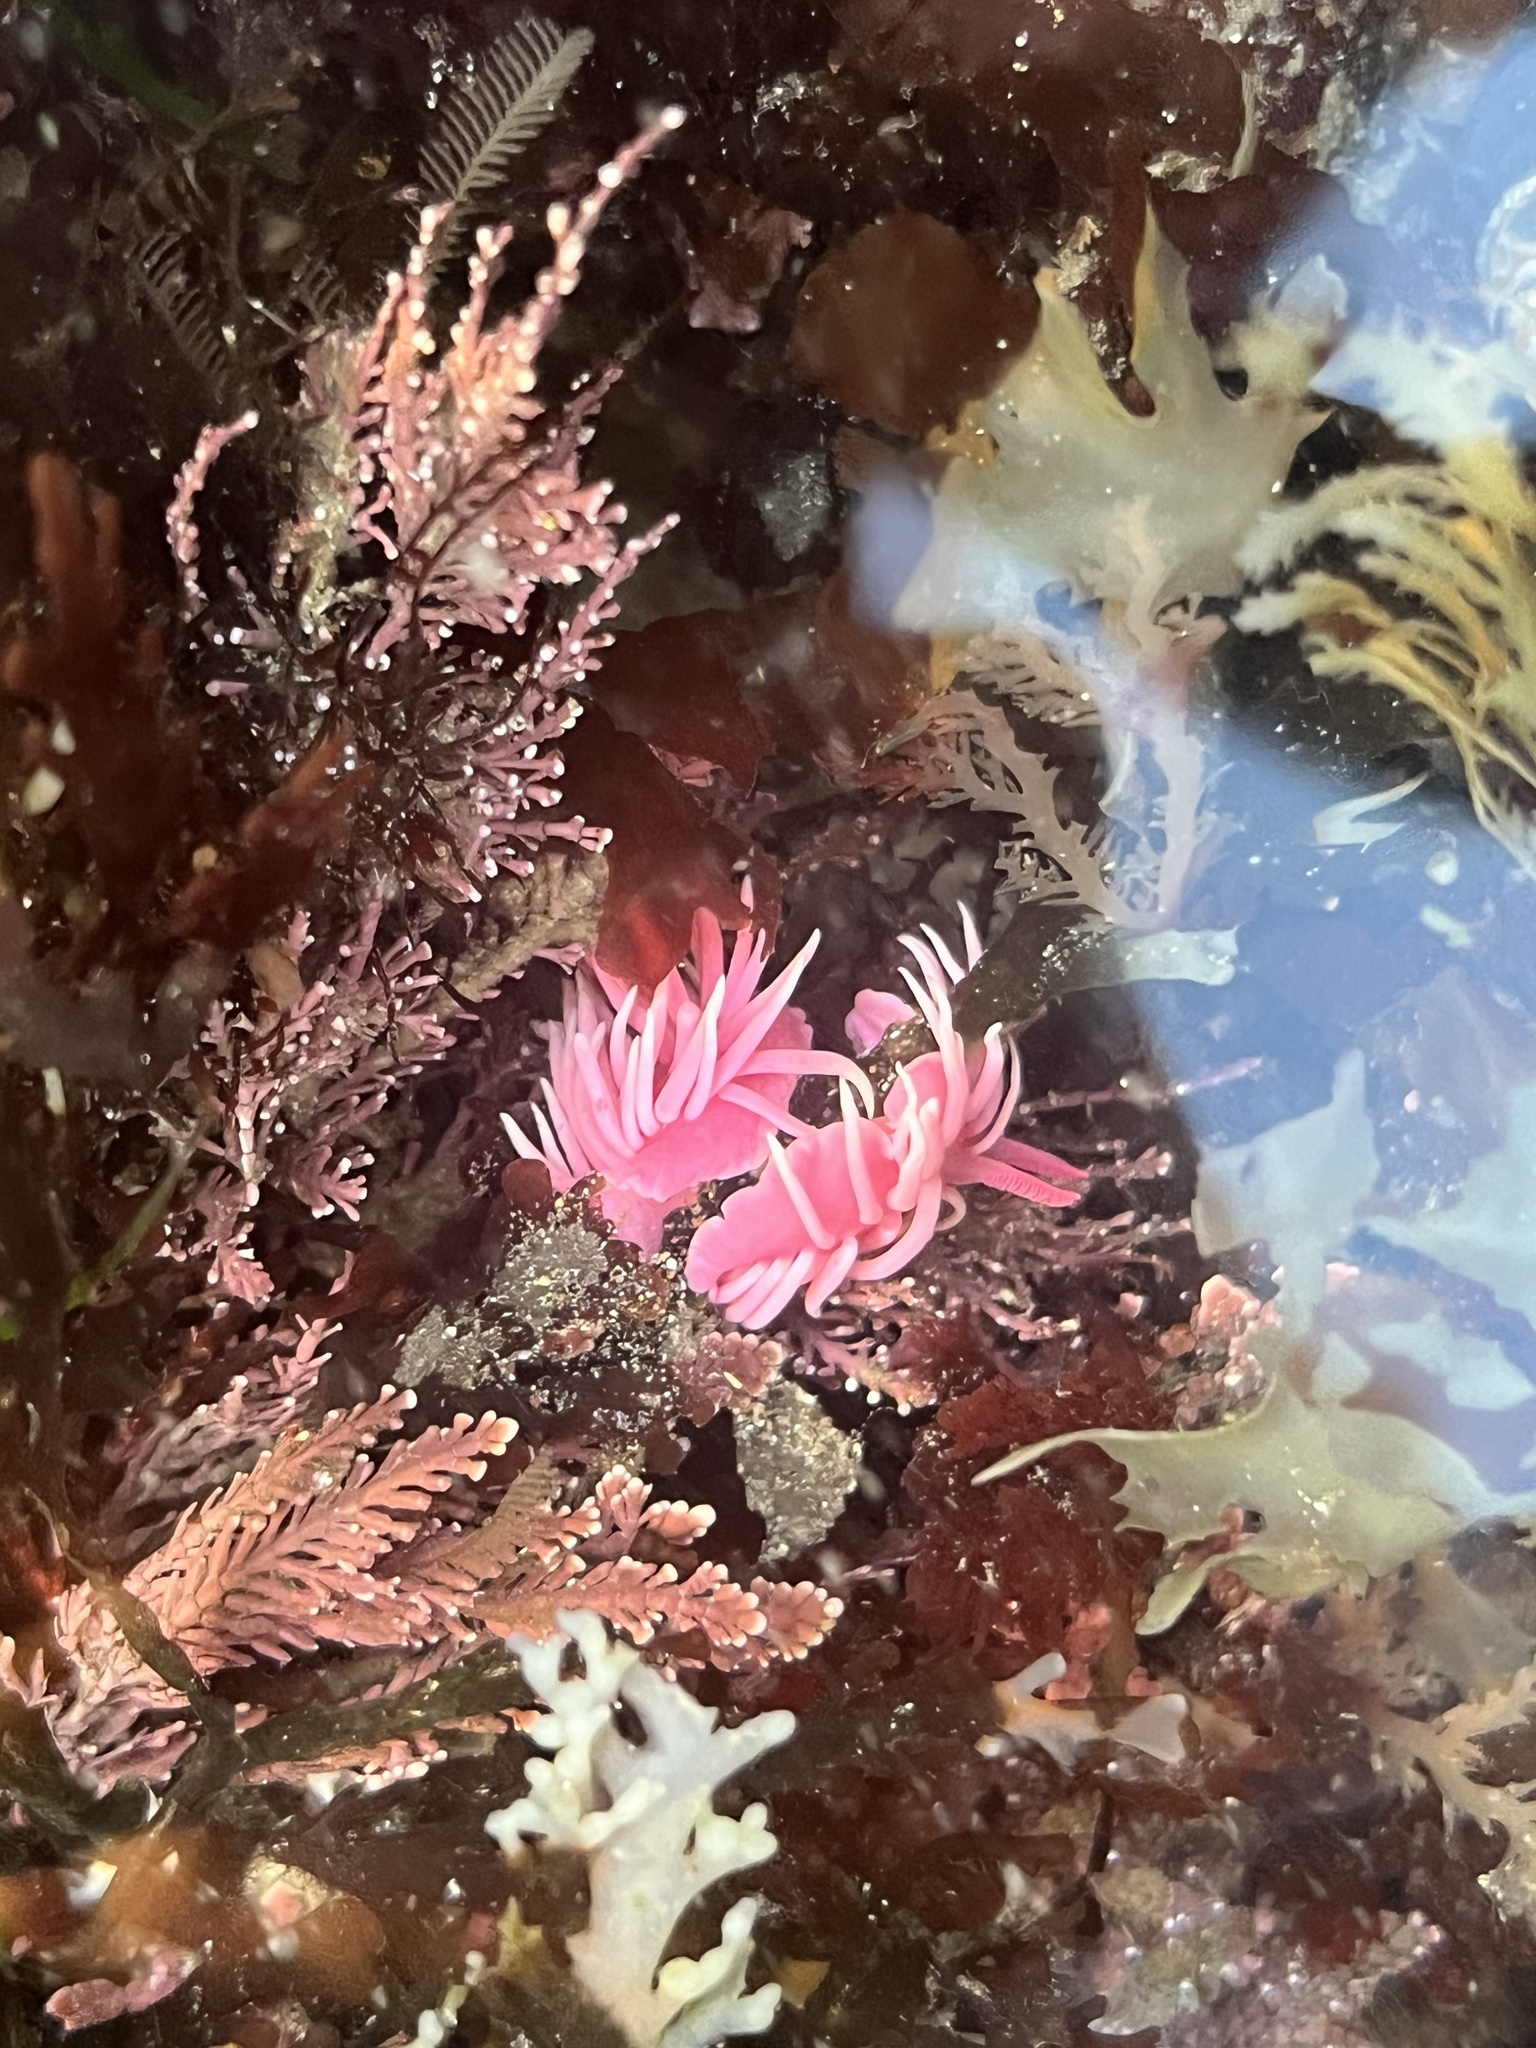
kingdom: Animalia
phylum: Mollusca
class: Gastropoda
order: Nudibranchia
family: Goniodorididae
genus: Okenia
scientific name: Okenia
